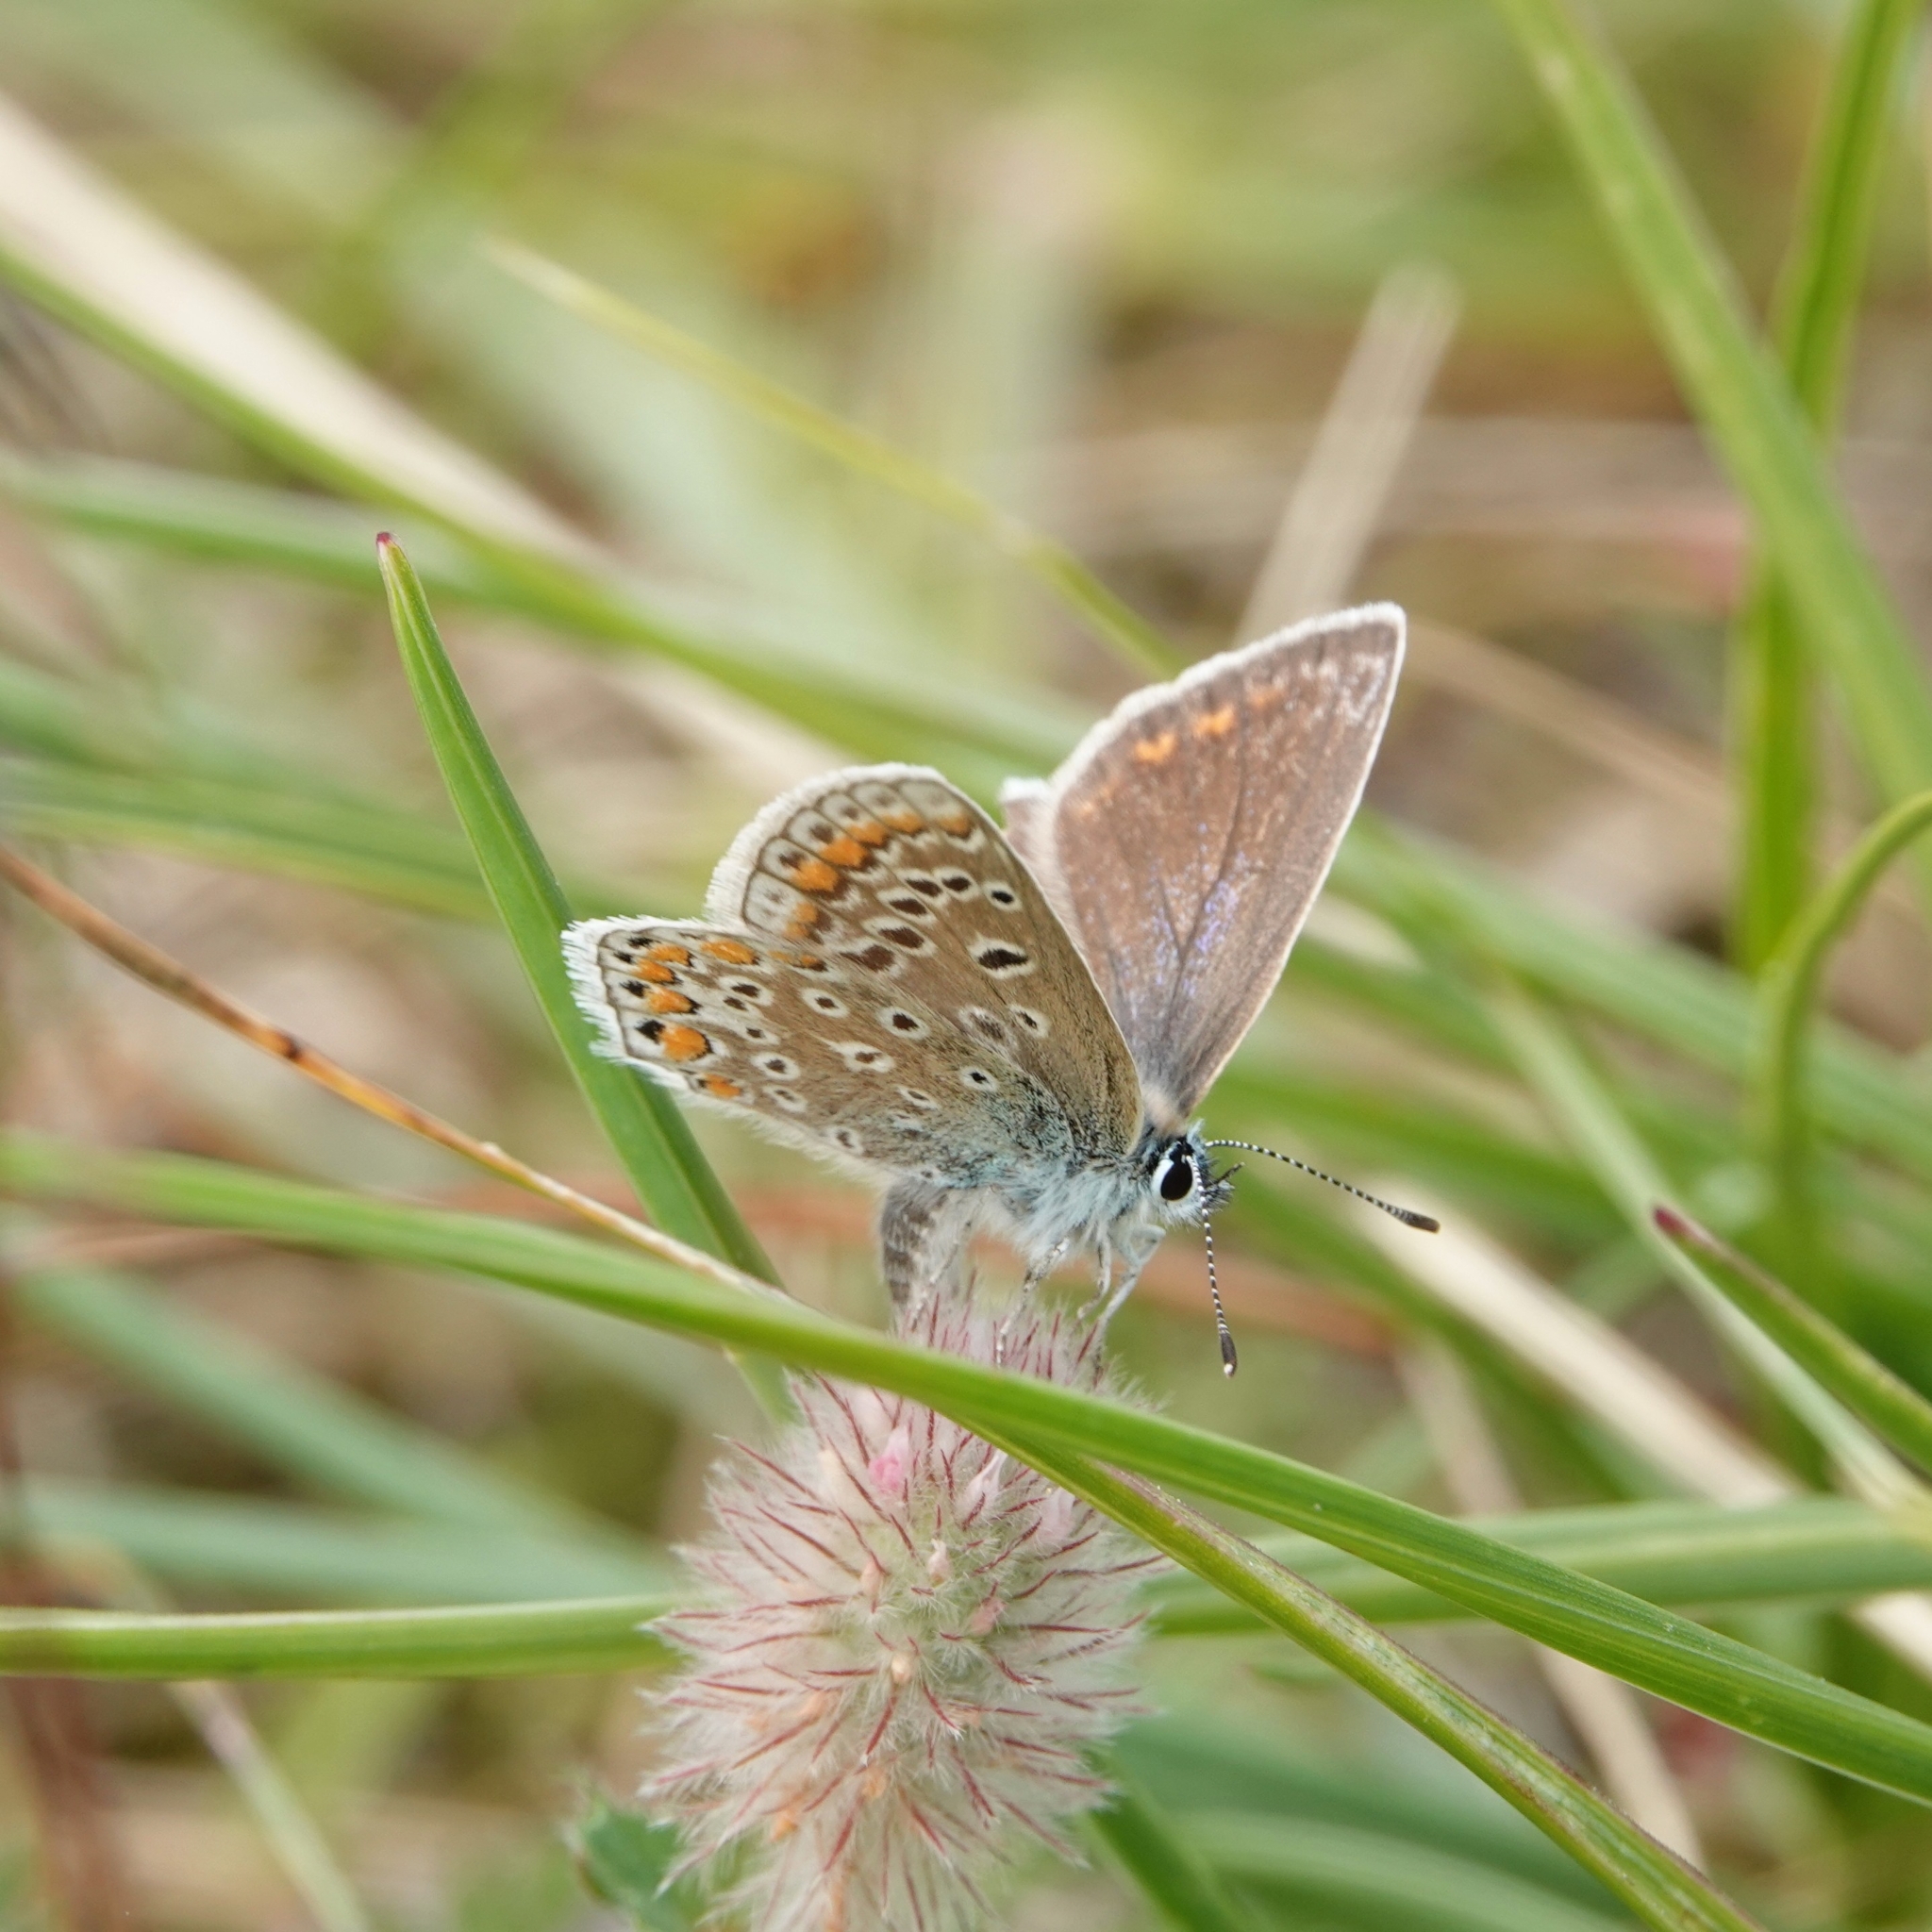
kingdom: Animalia
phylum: Arthropoda
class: Insecta
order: Lepidoptera
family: Lycaenidae
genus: Polyommatus
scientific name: Polyommatus icarus
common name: Common blue
